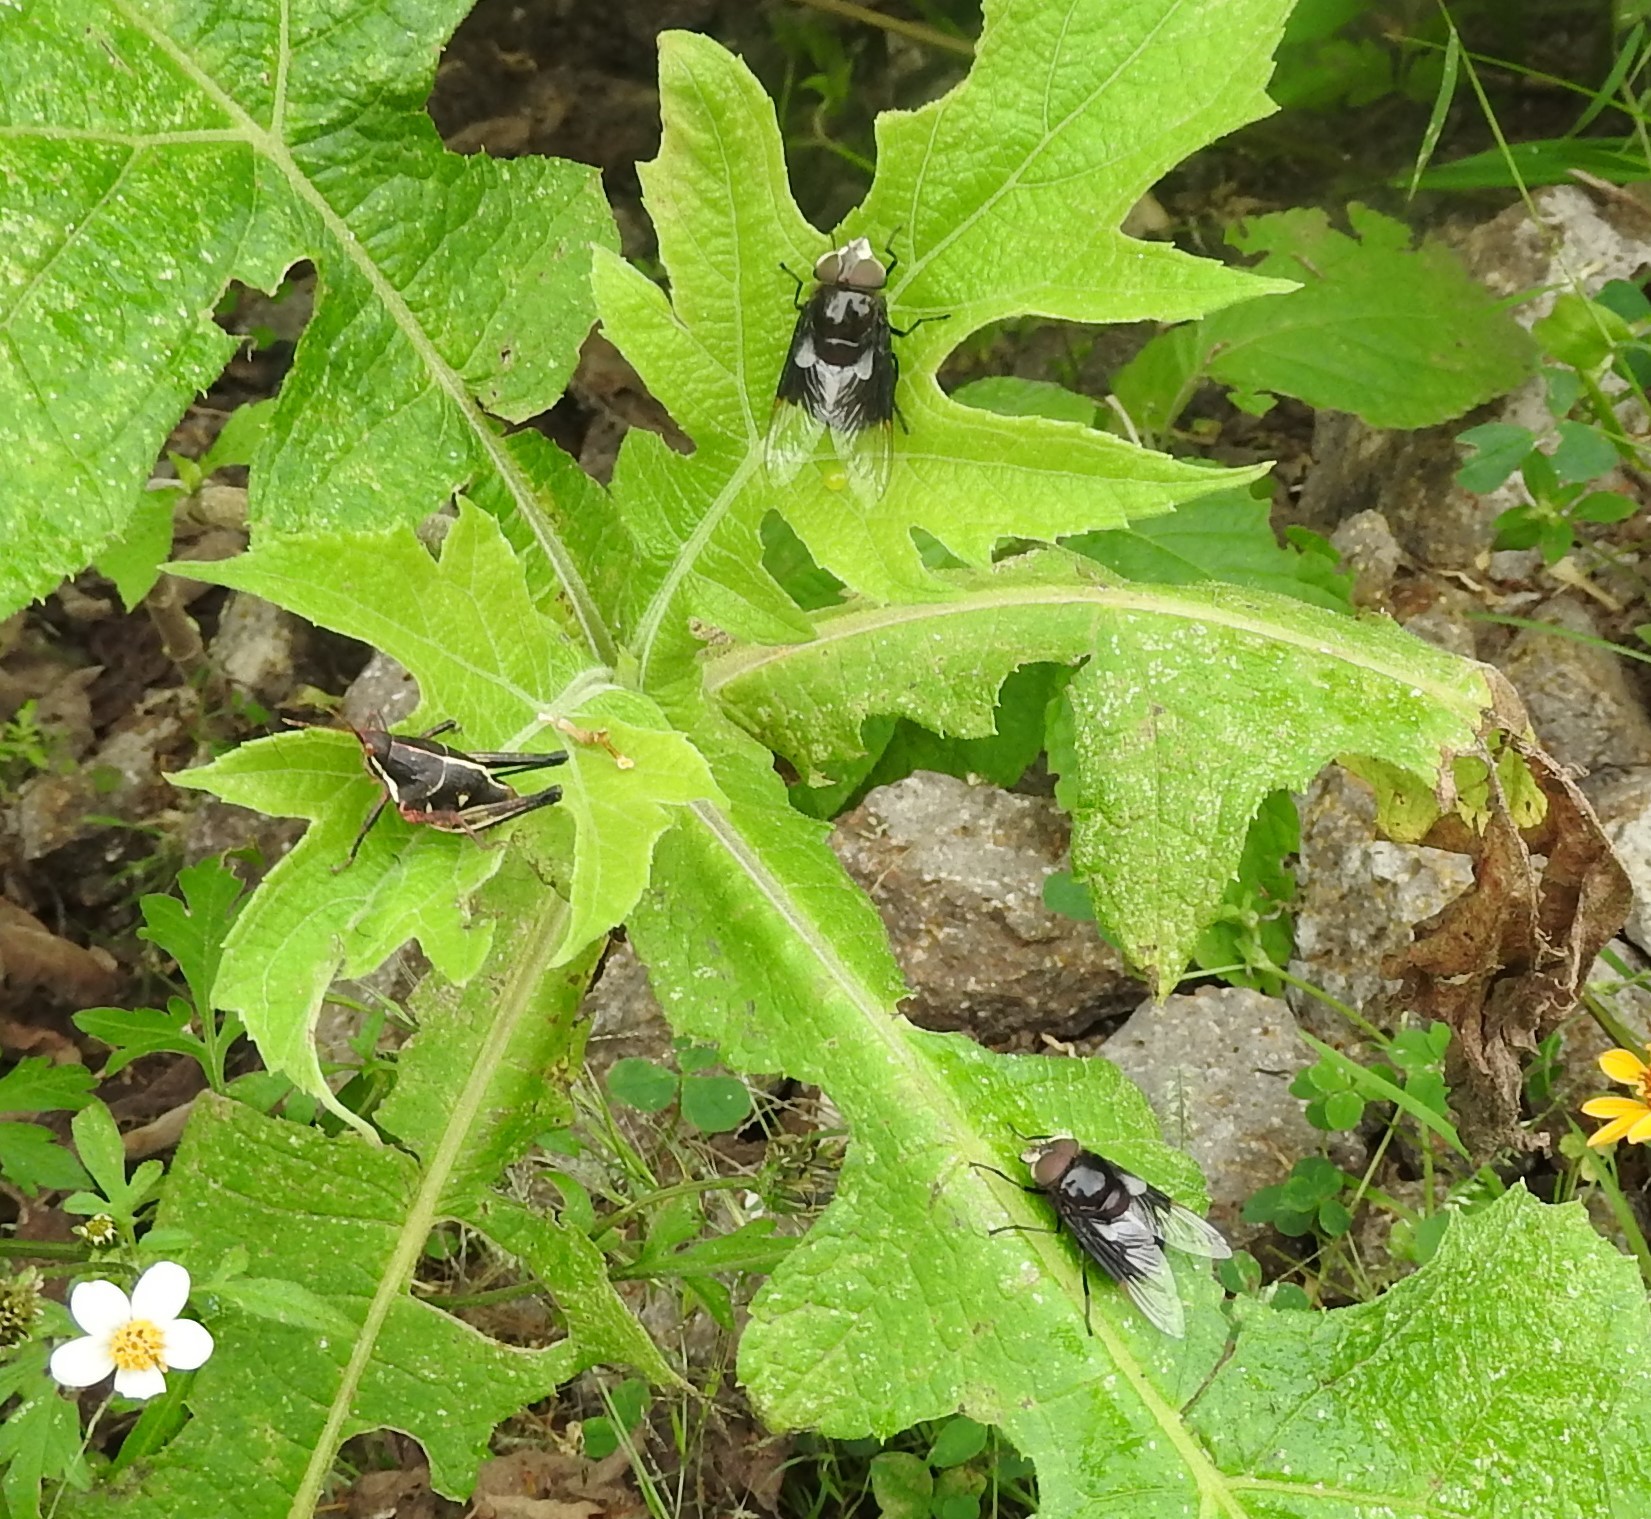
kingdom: Animalia
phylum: Arthropoda
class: Insecta
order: Diptera
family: Syrphidae
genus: Copestylum
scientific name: Copestylum mexicanum
